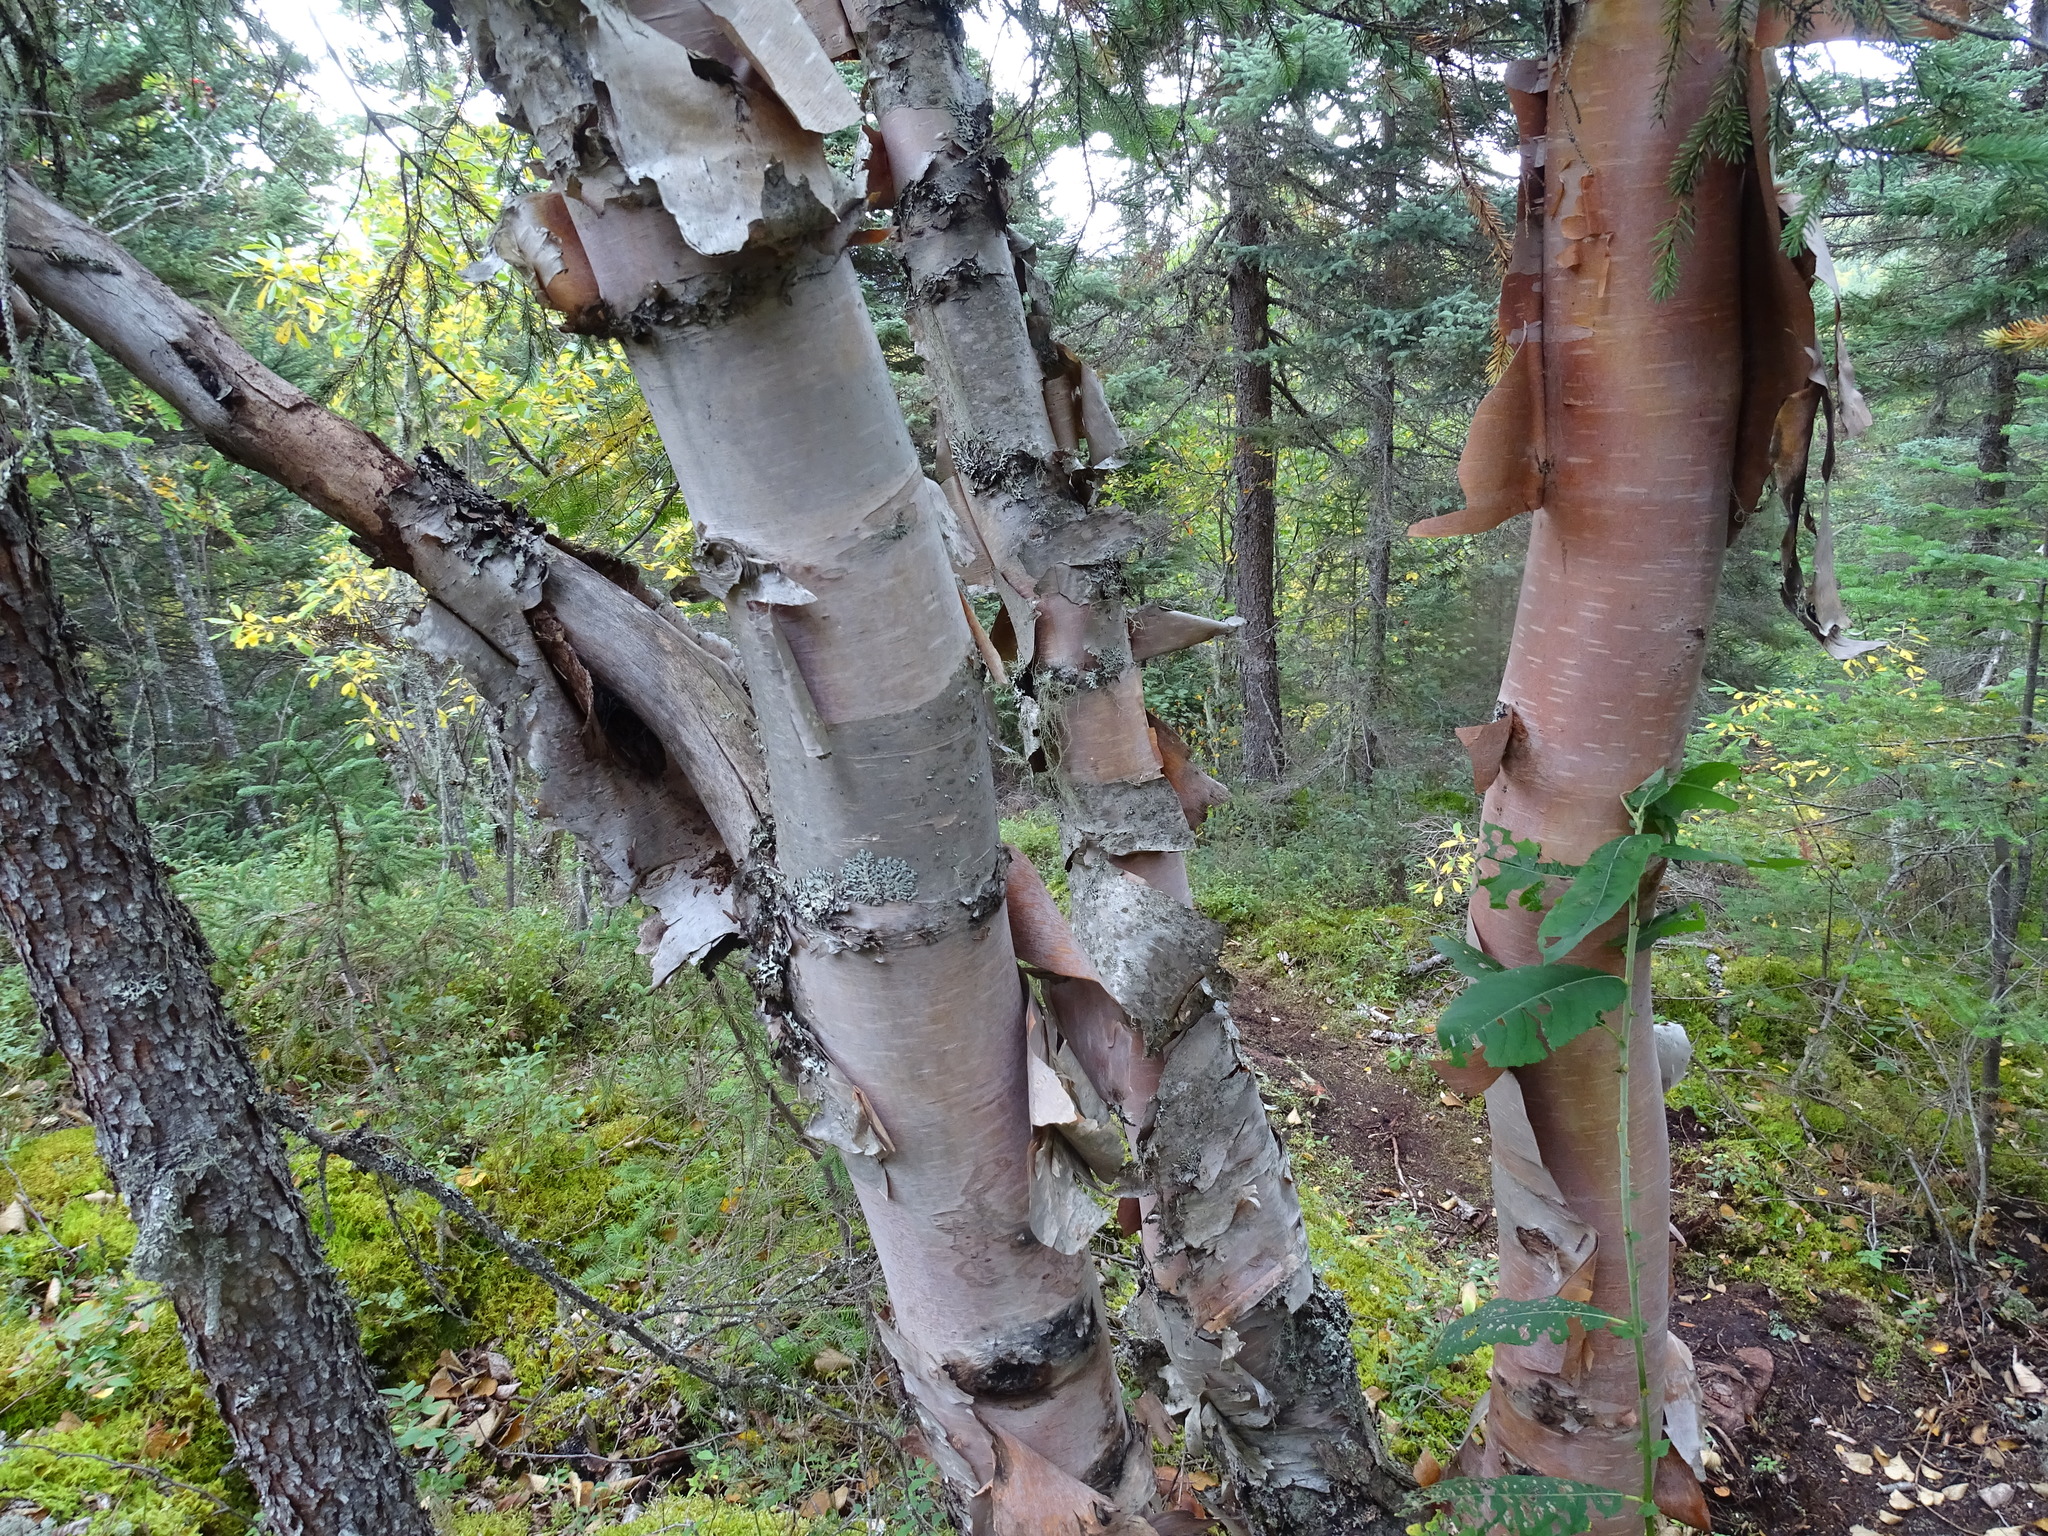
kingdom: Plantae
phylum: Tracheophyta
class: Magnoliopsida
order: Fagales
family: Betulaceae
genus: Betula
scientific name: Betula cordifolia
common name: Mountain white birch
